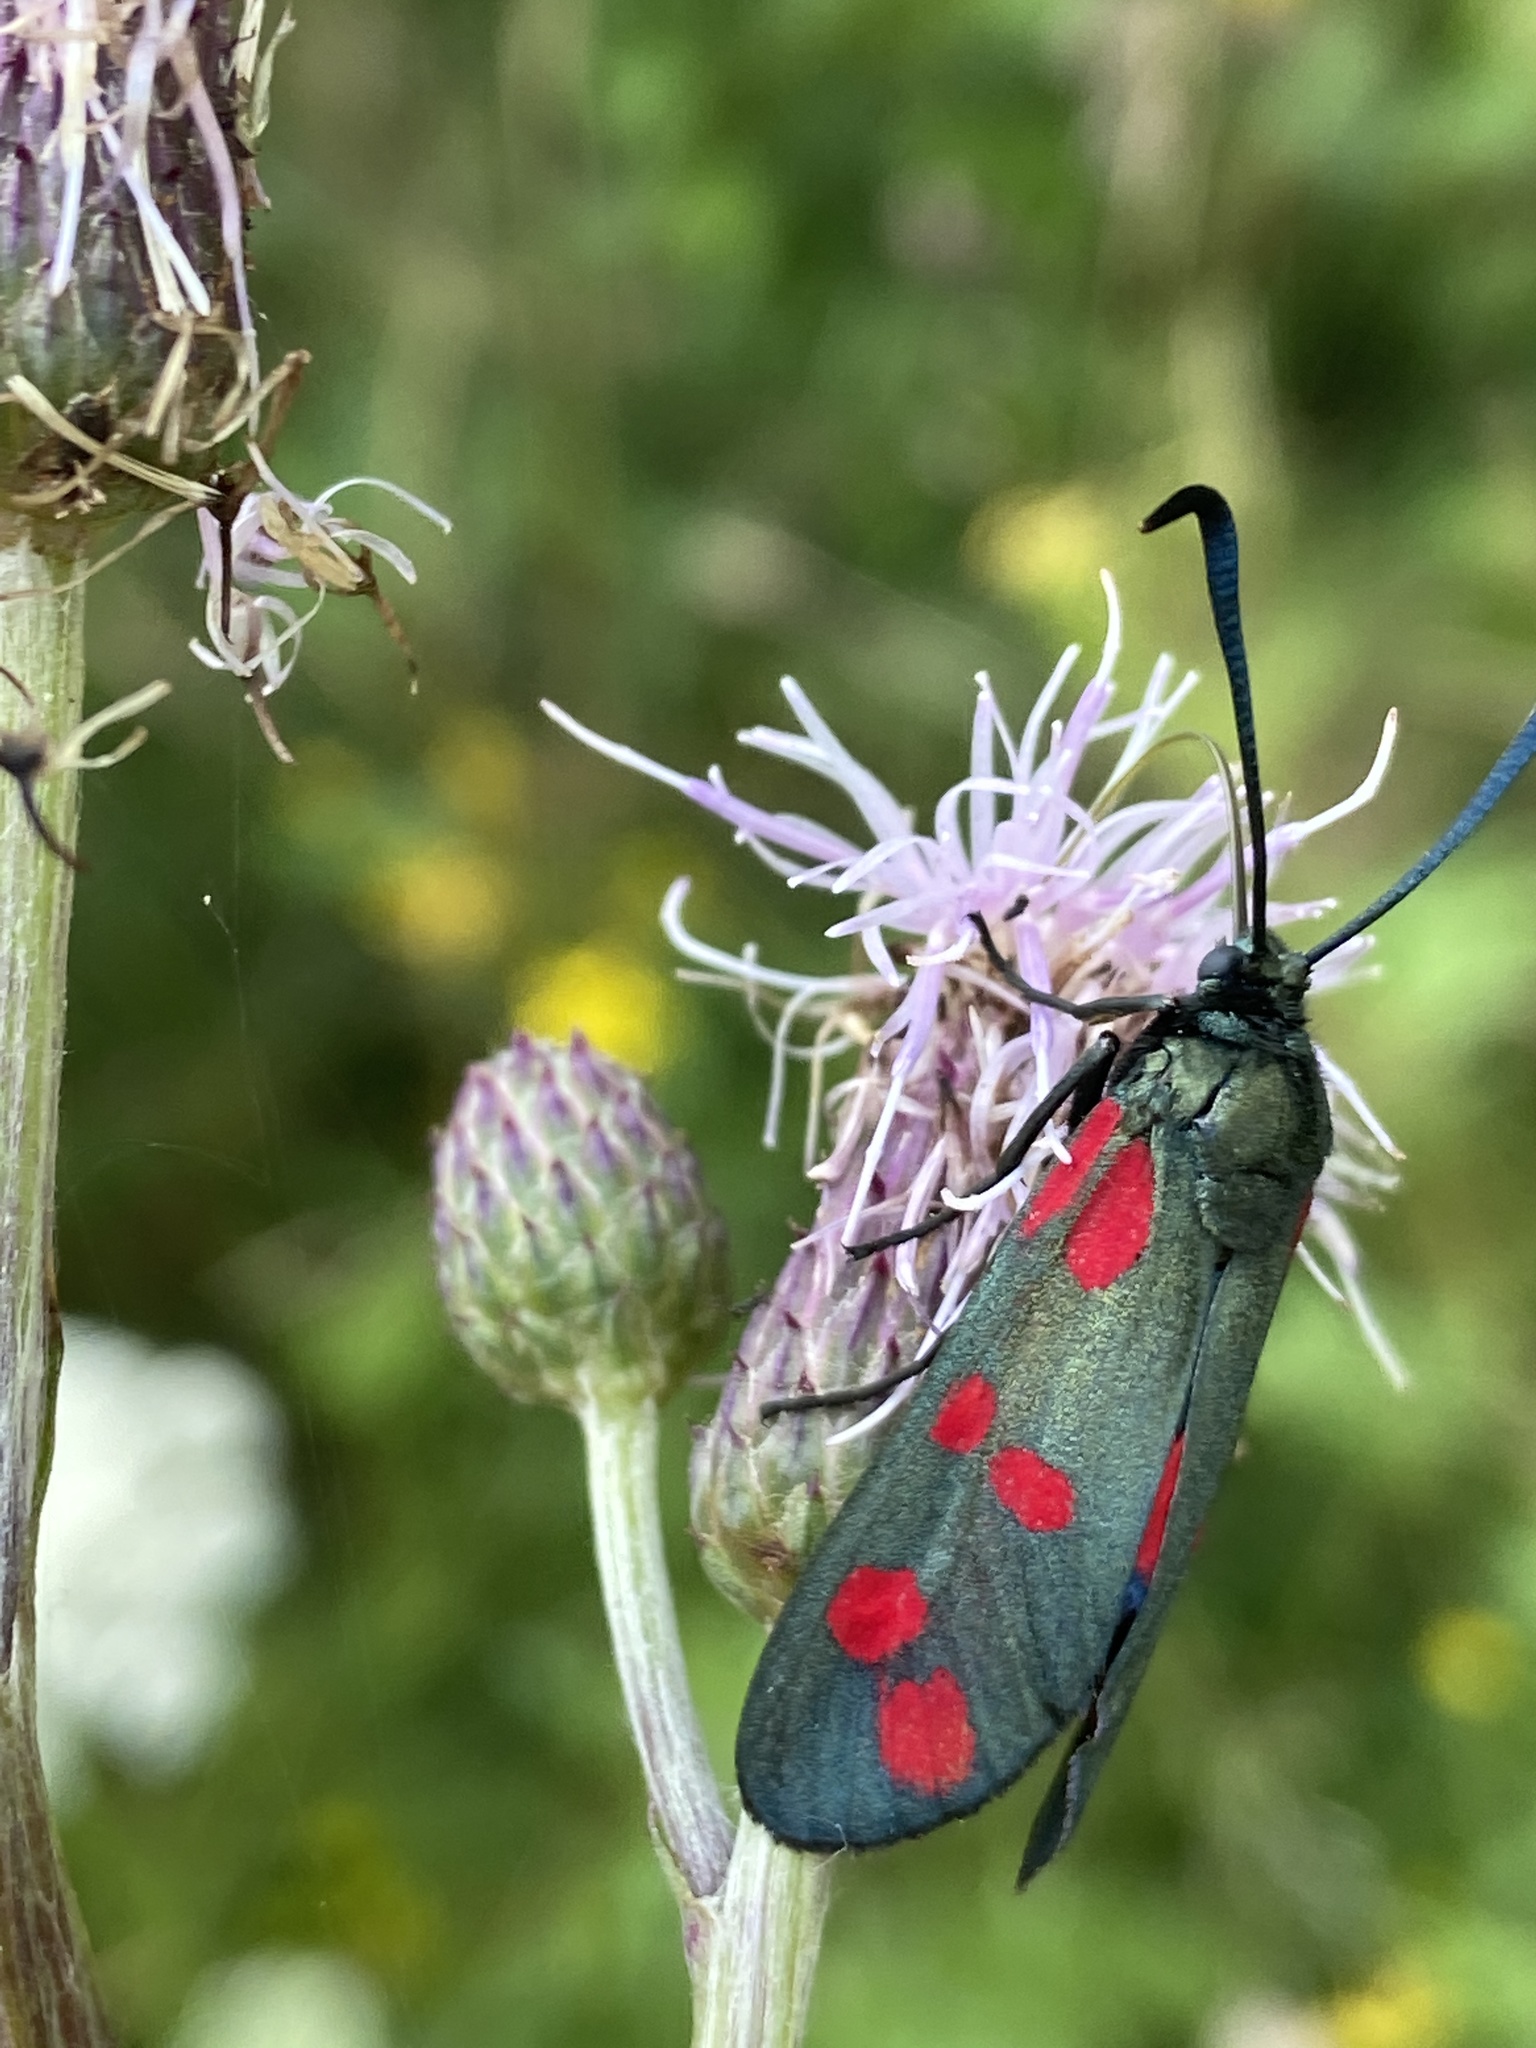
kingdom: Animalia
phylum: Arthropoda
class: Insecta
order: Lepidoptera
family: Zygaenidae
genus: Zygaena
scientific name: Zygaena filipendulae
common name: Six-spot burnet
